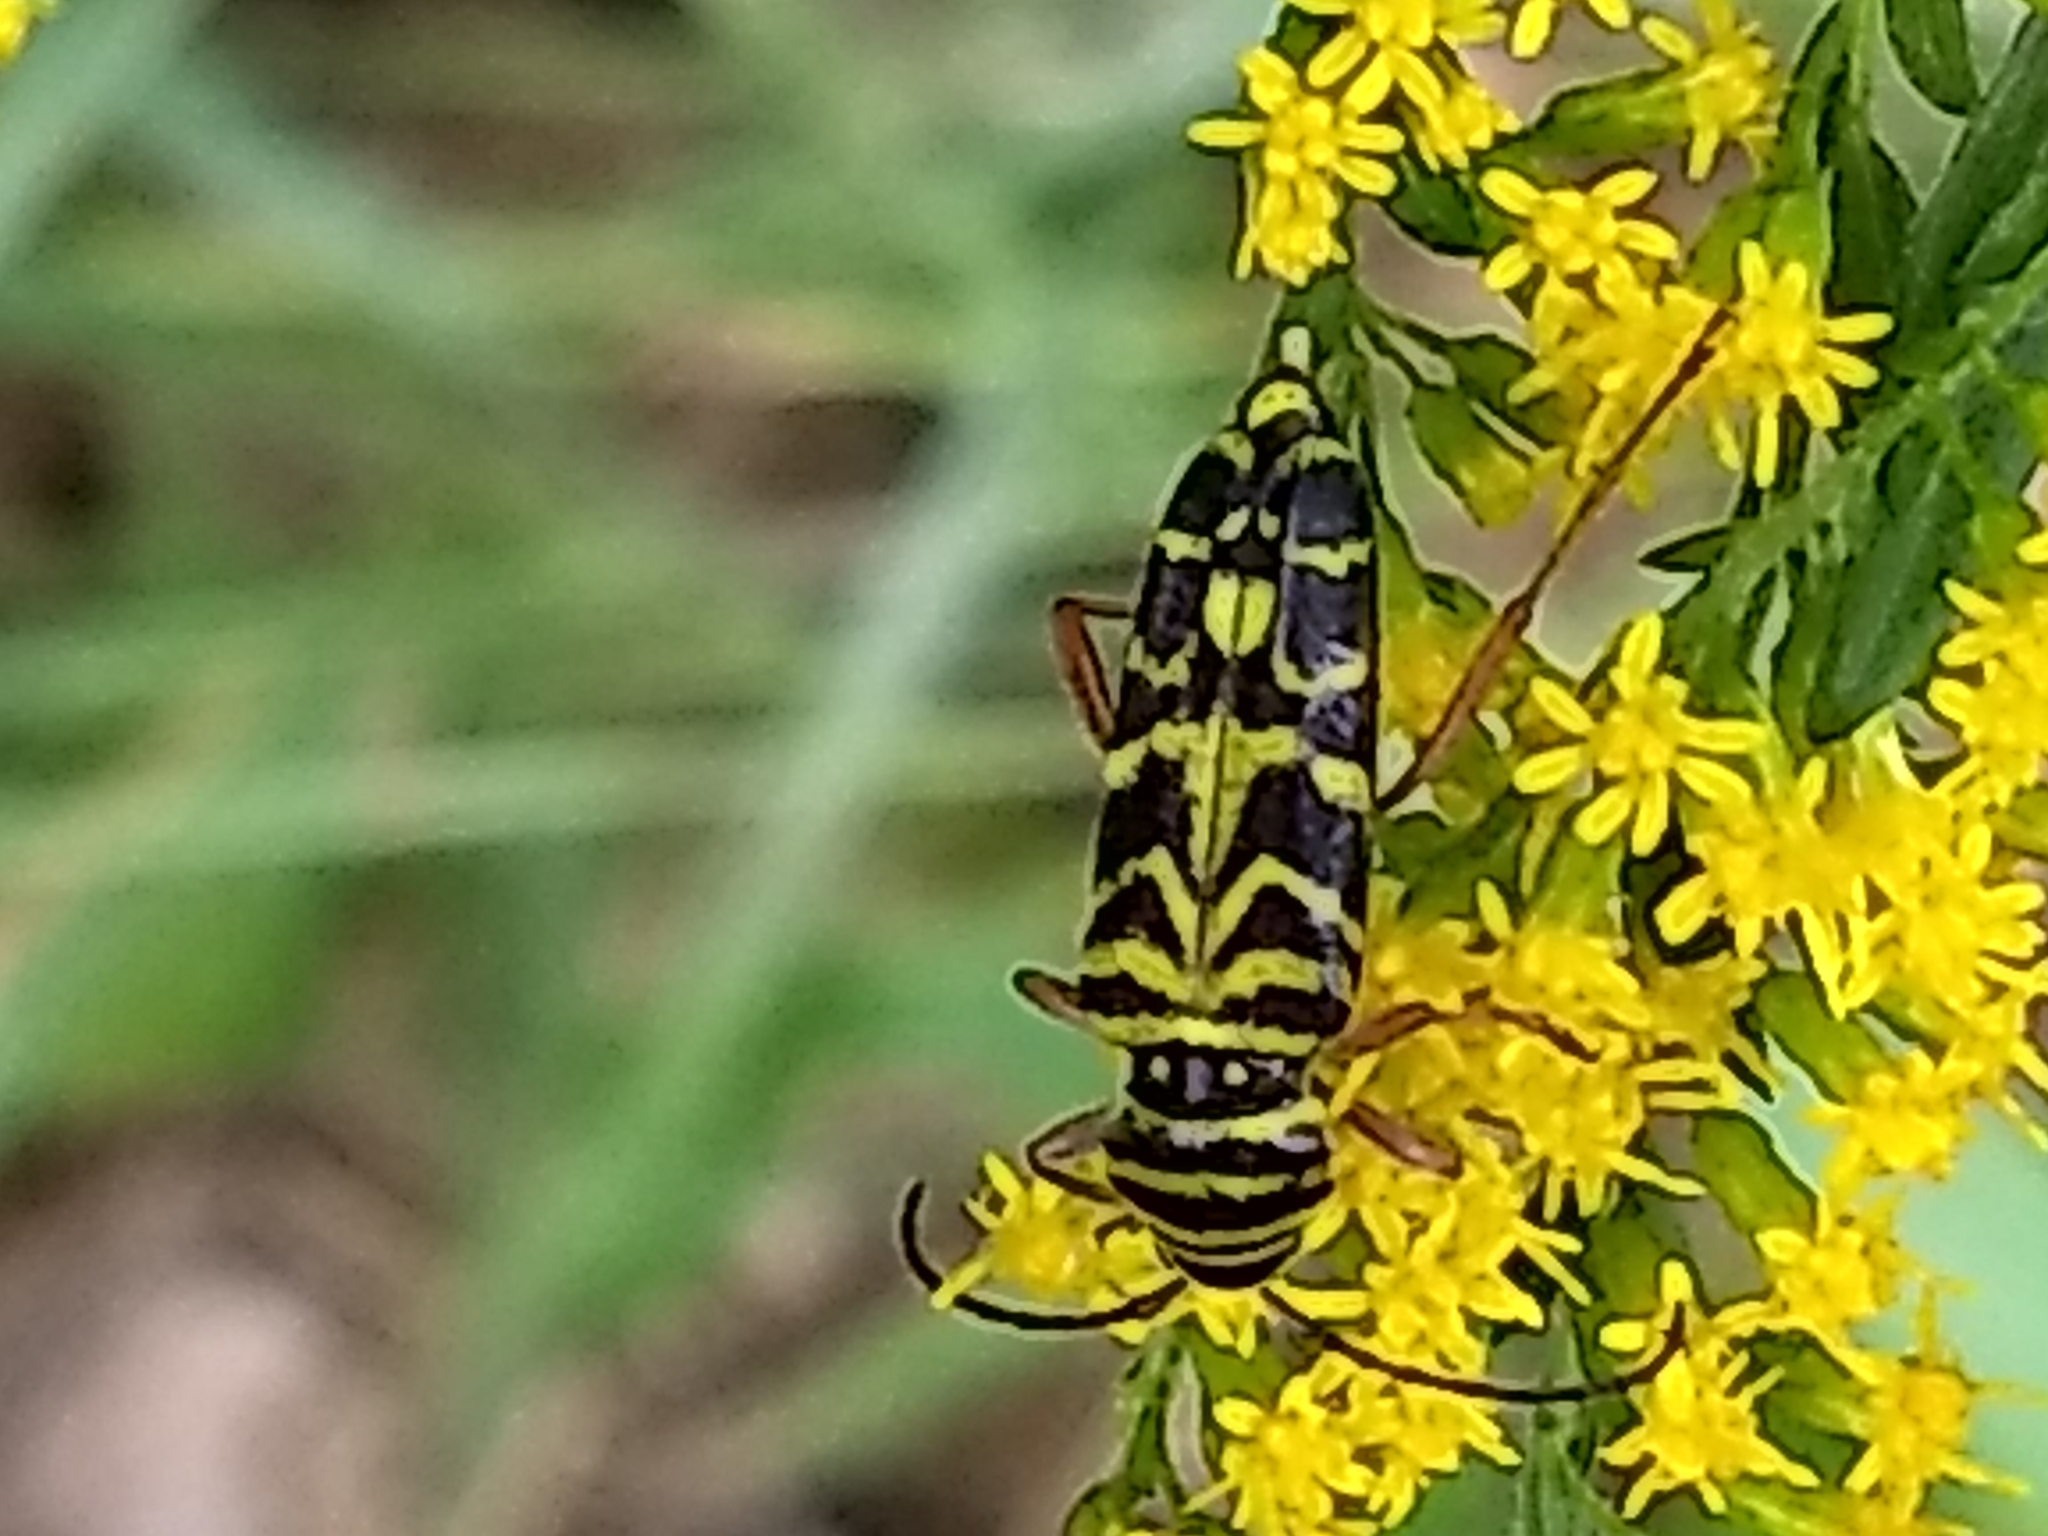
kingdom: Animalia
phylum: Arthropoda
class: Insecta
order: Coleoptera
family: Cerambycidae
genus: Megacyllene
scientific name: Megacyllene robiniae
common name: Locust borer
